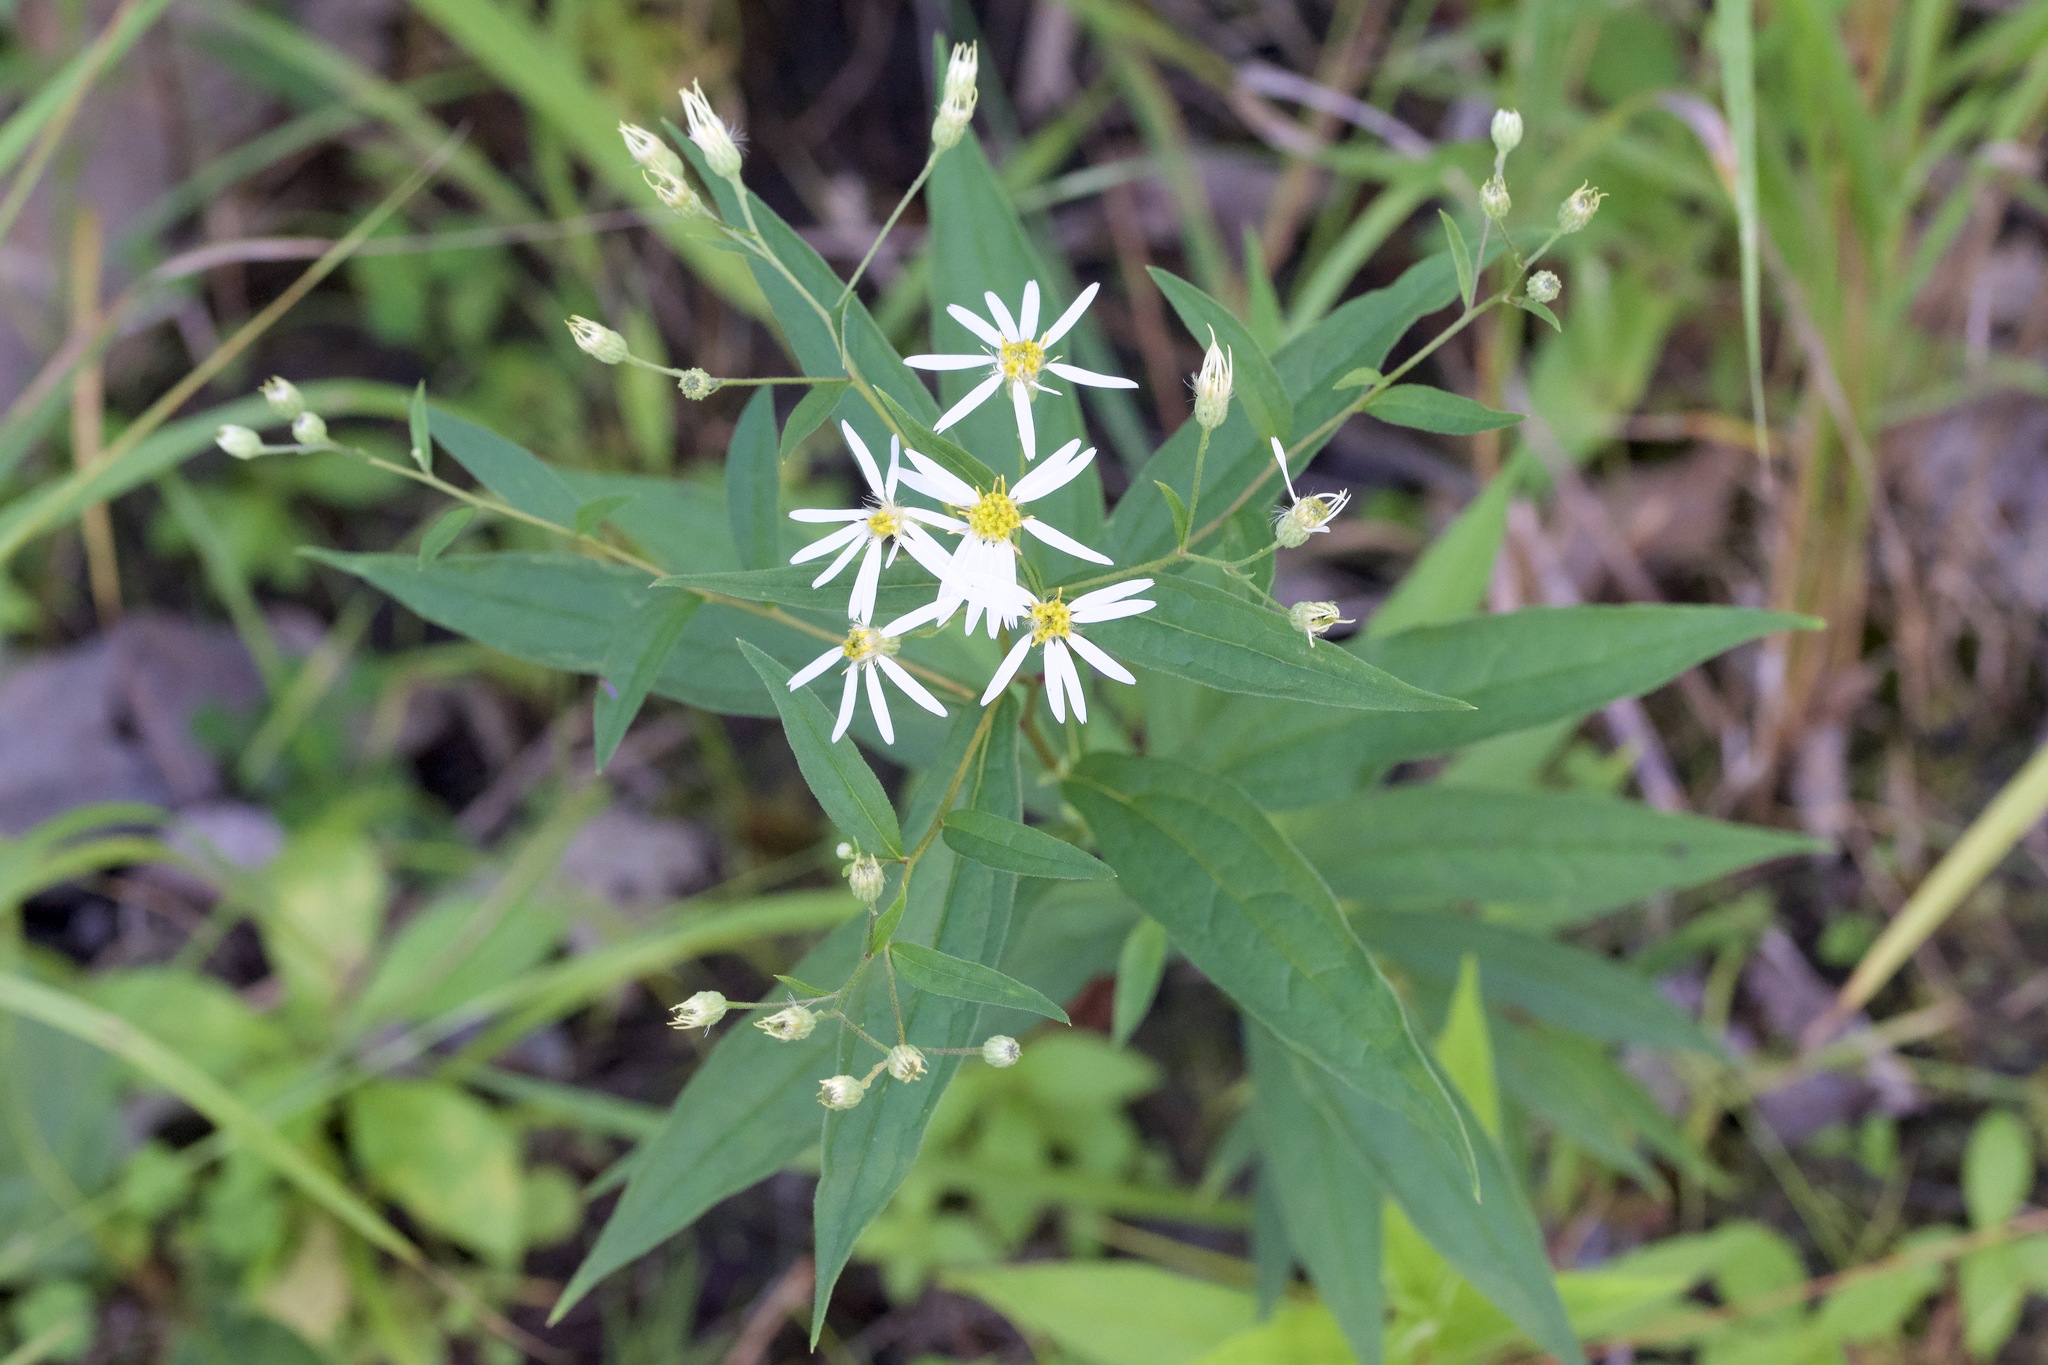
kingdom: Plantae
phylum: Tracheophyta
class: Magnoliopsida
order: Asterales
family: Asteraceae
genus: Doellingeria
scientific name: Doellingeria umbellata
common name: Flat-top white aster
